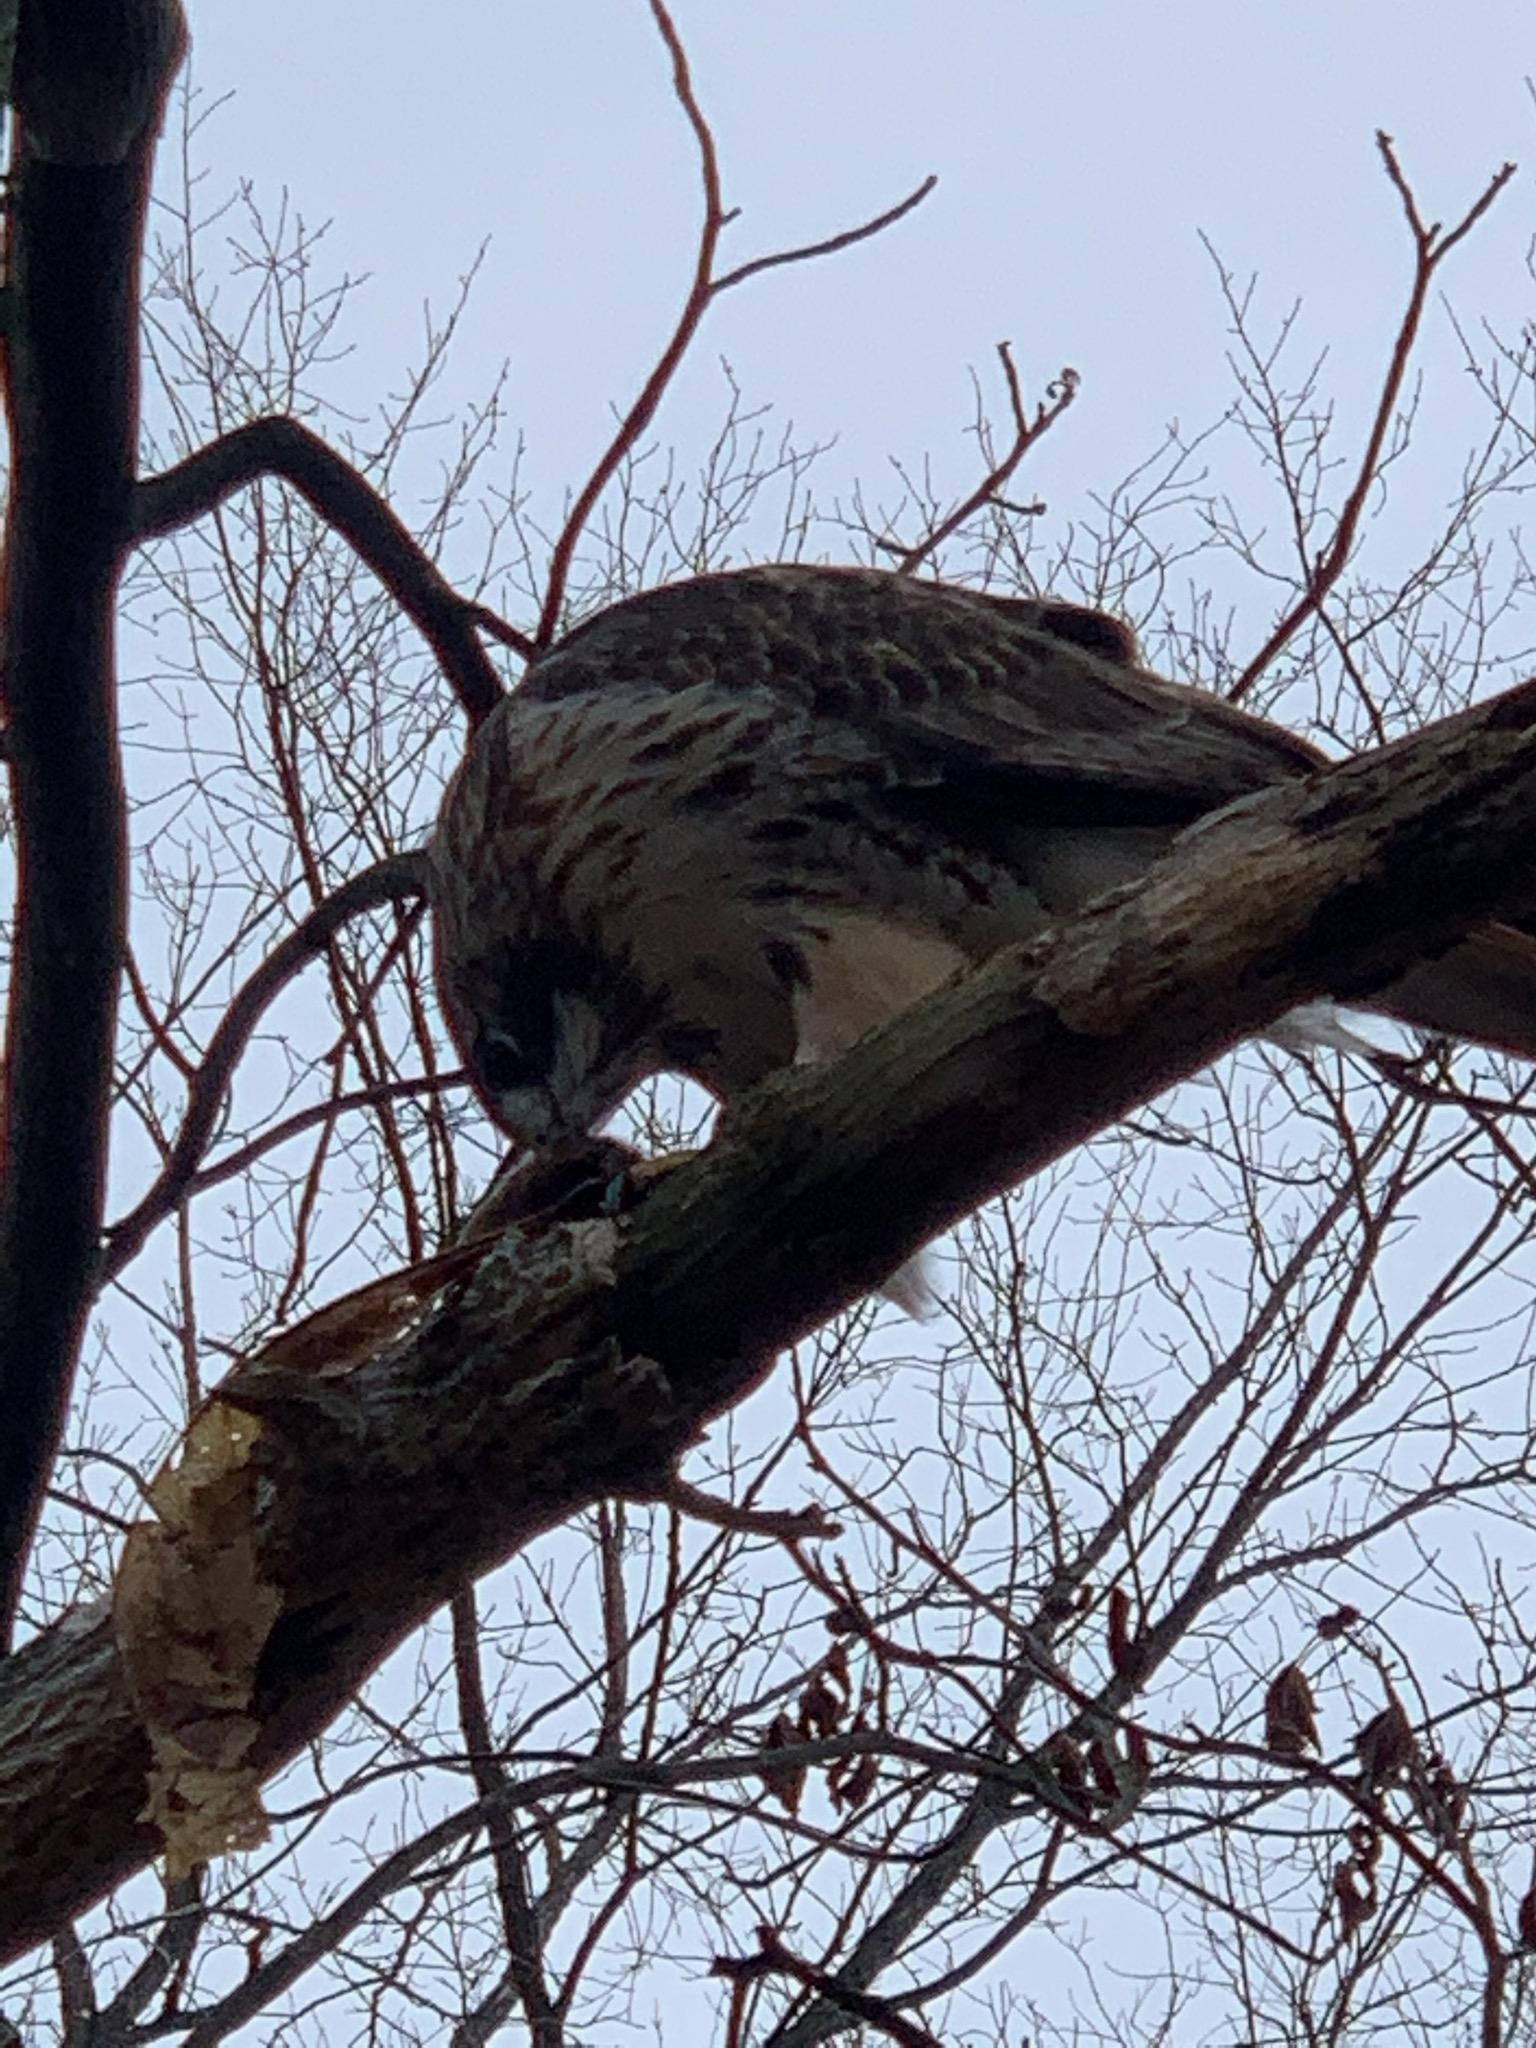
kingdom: Animalia
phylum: Chordata
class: Aves
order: Accipitriformes
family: Accipitridae
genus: Buteo
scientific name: Buteo jamaicensis
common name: Red-tailed hawk
